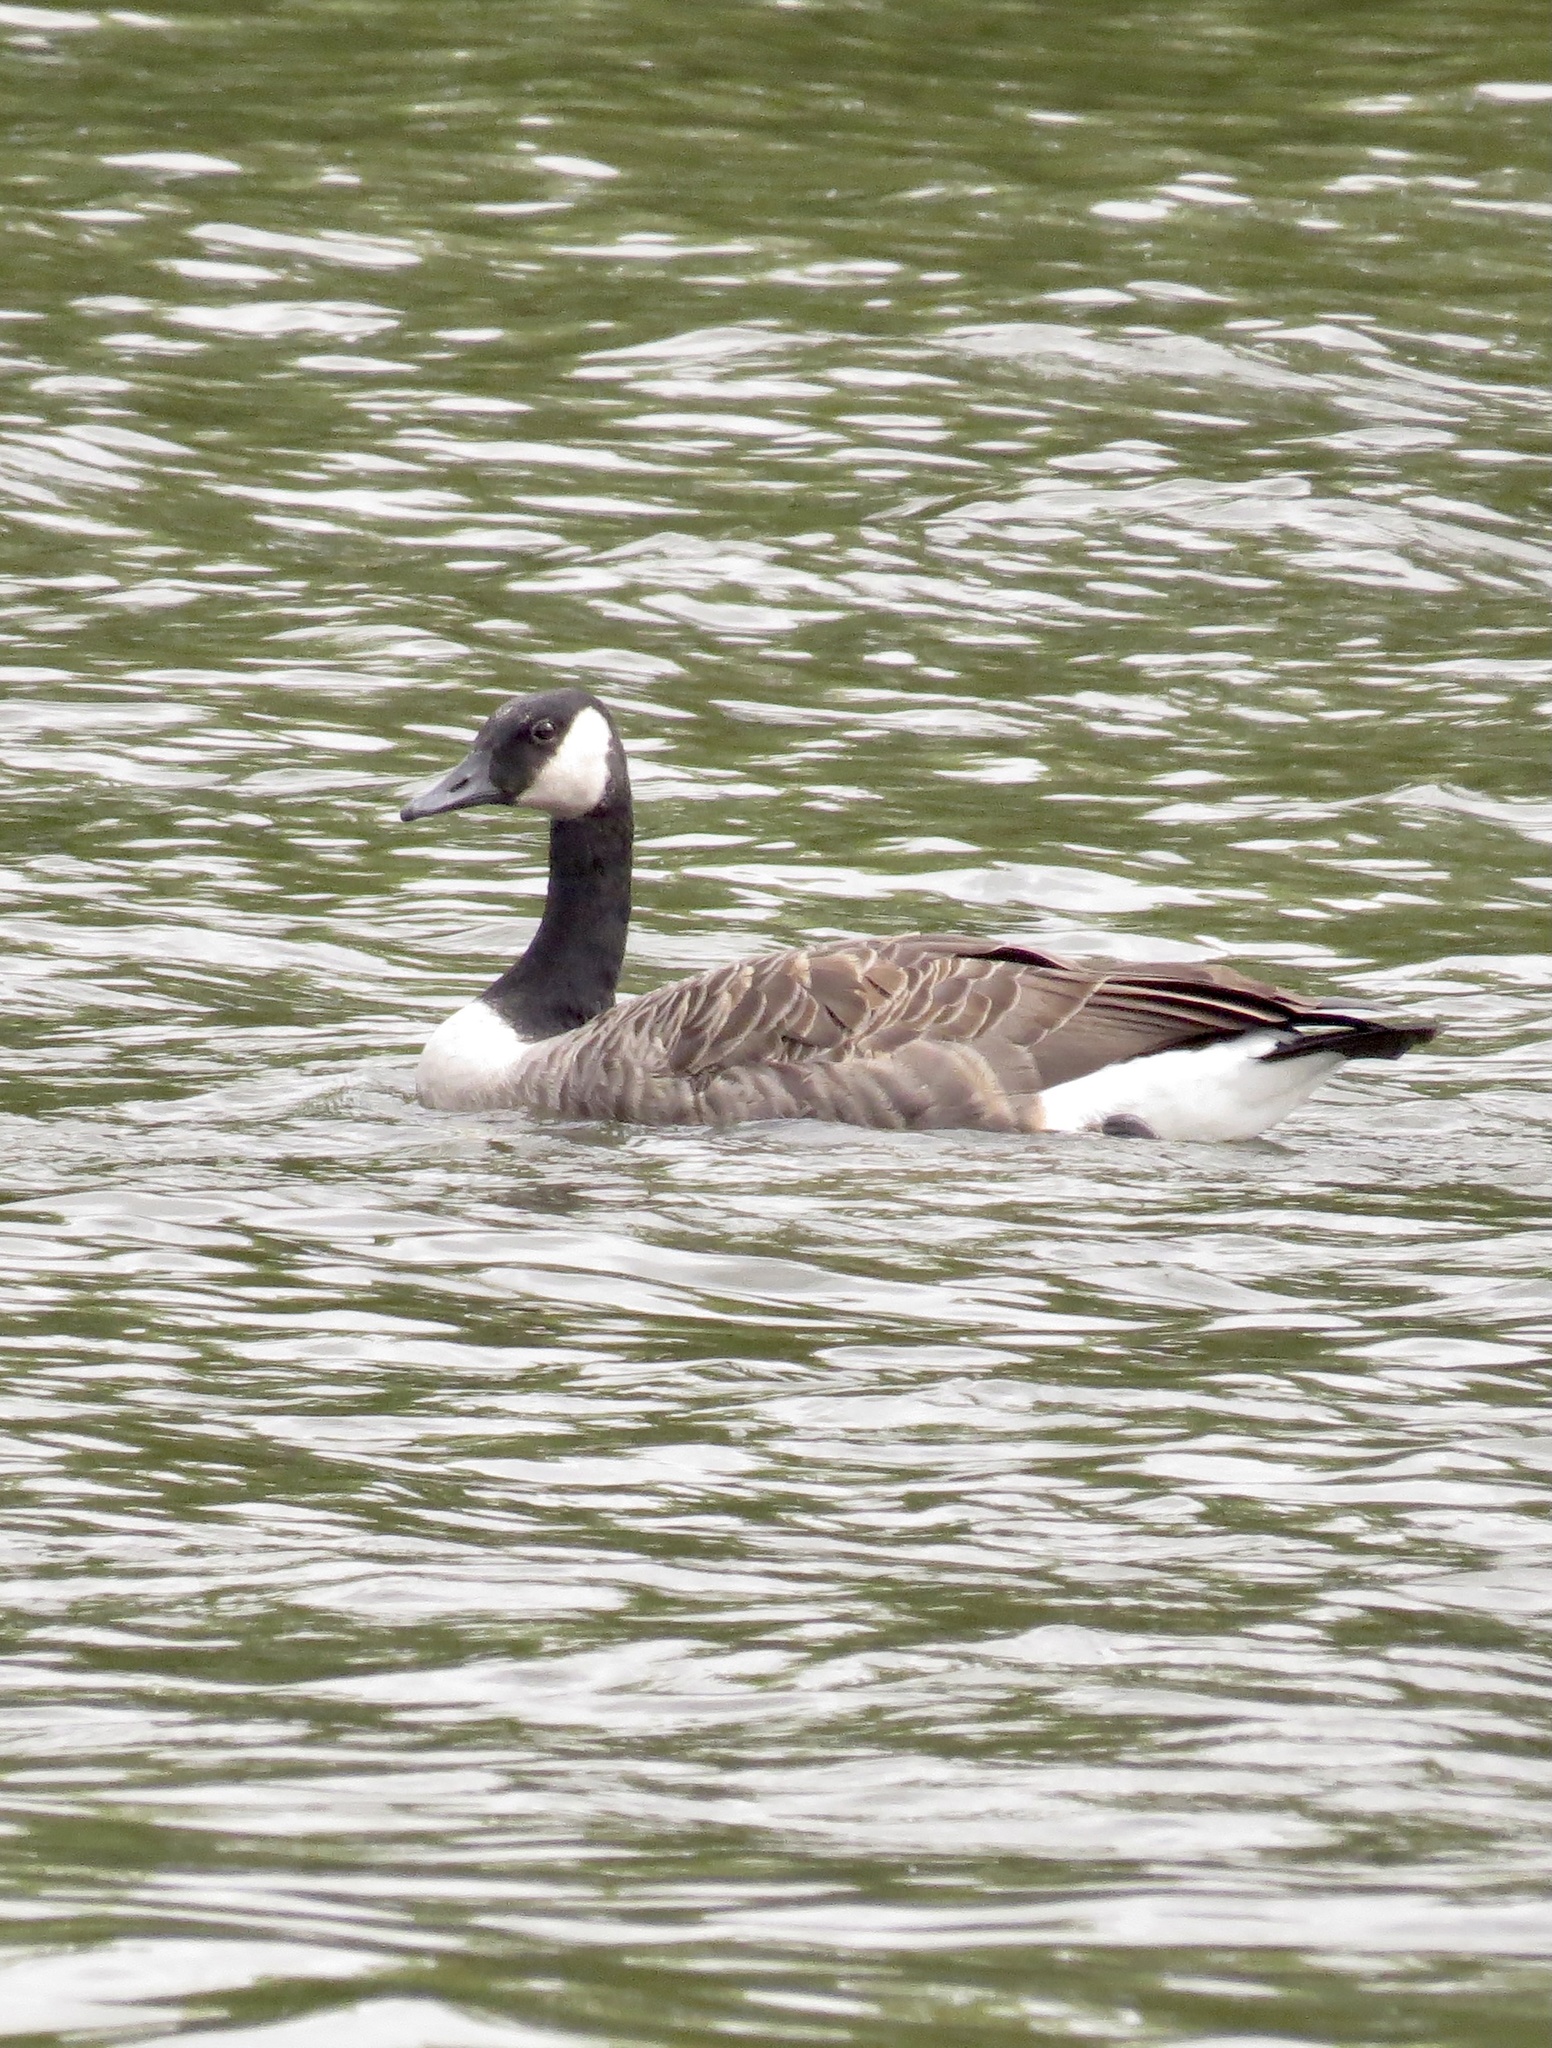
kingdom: Animalia
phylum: Chordata
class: Aves
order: Anseriformes
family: Anatidae
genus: Branta
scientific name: Branta canadensis
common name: Canada goose
